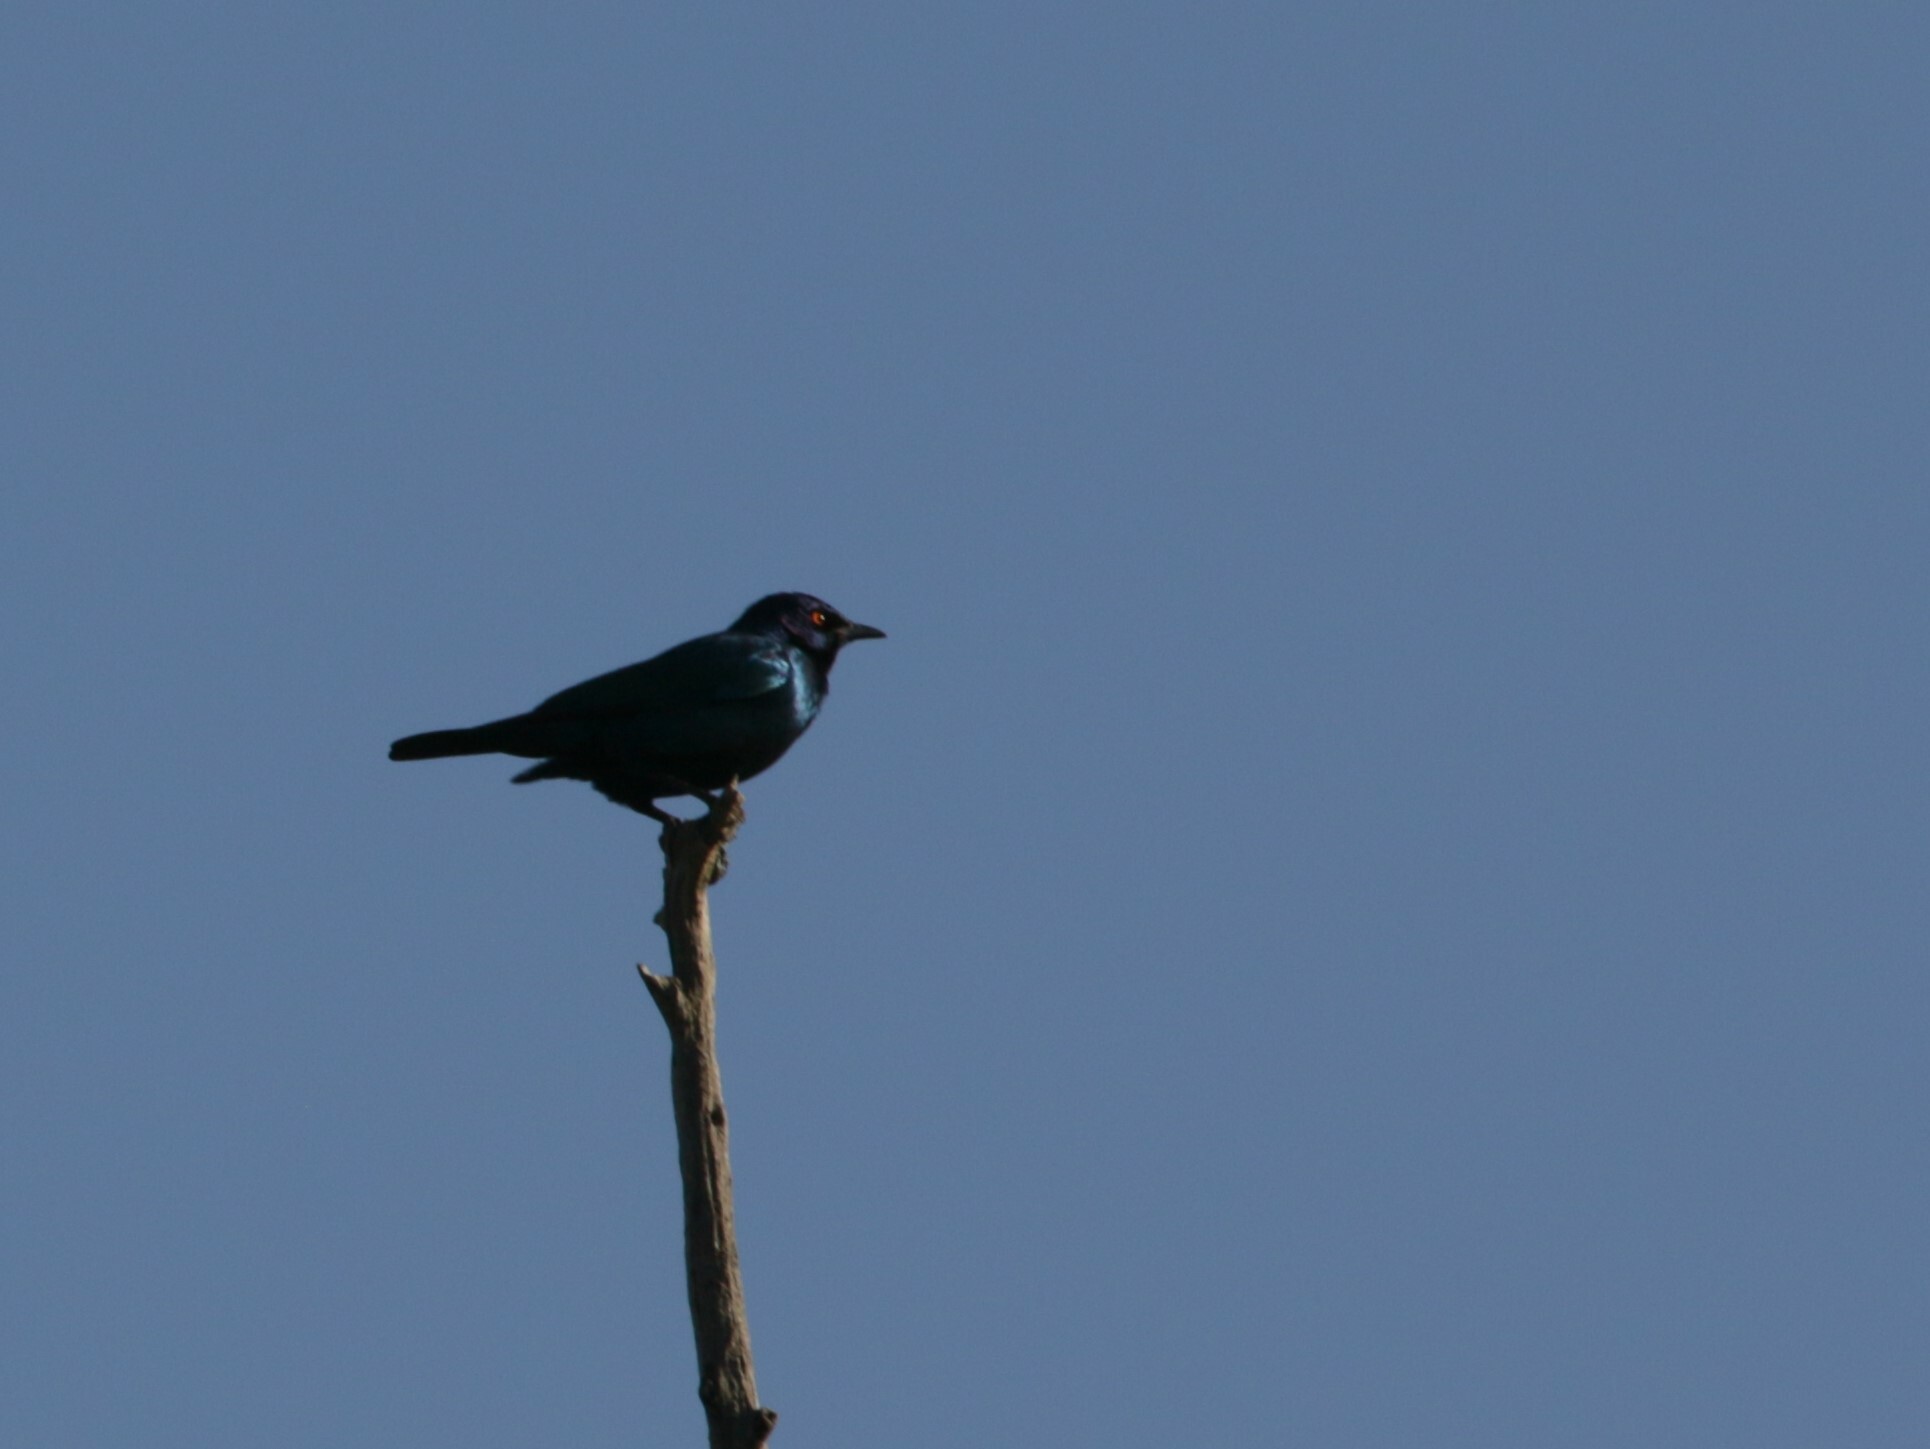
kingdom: Animalia
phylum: Chordata
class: Aves
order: Passeriformes
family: Sturnidae
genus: Lamprotornis
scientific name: Lamprotornis nitens
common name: Cape starling
